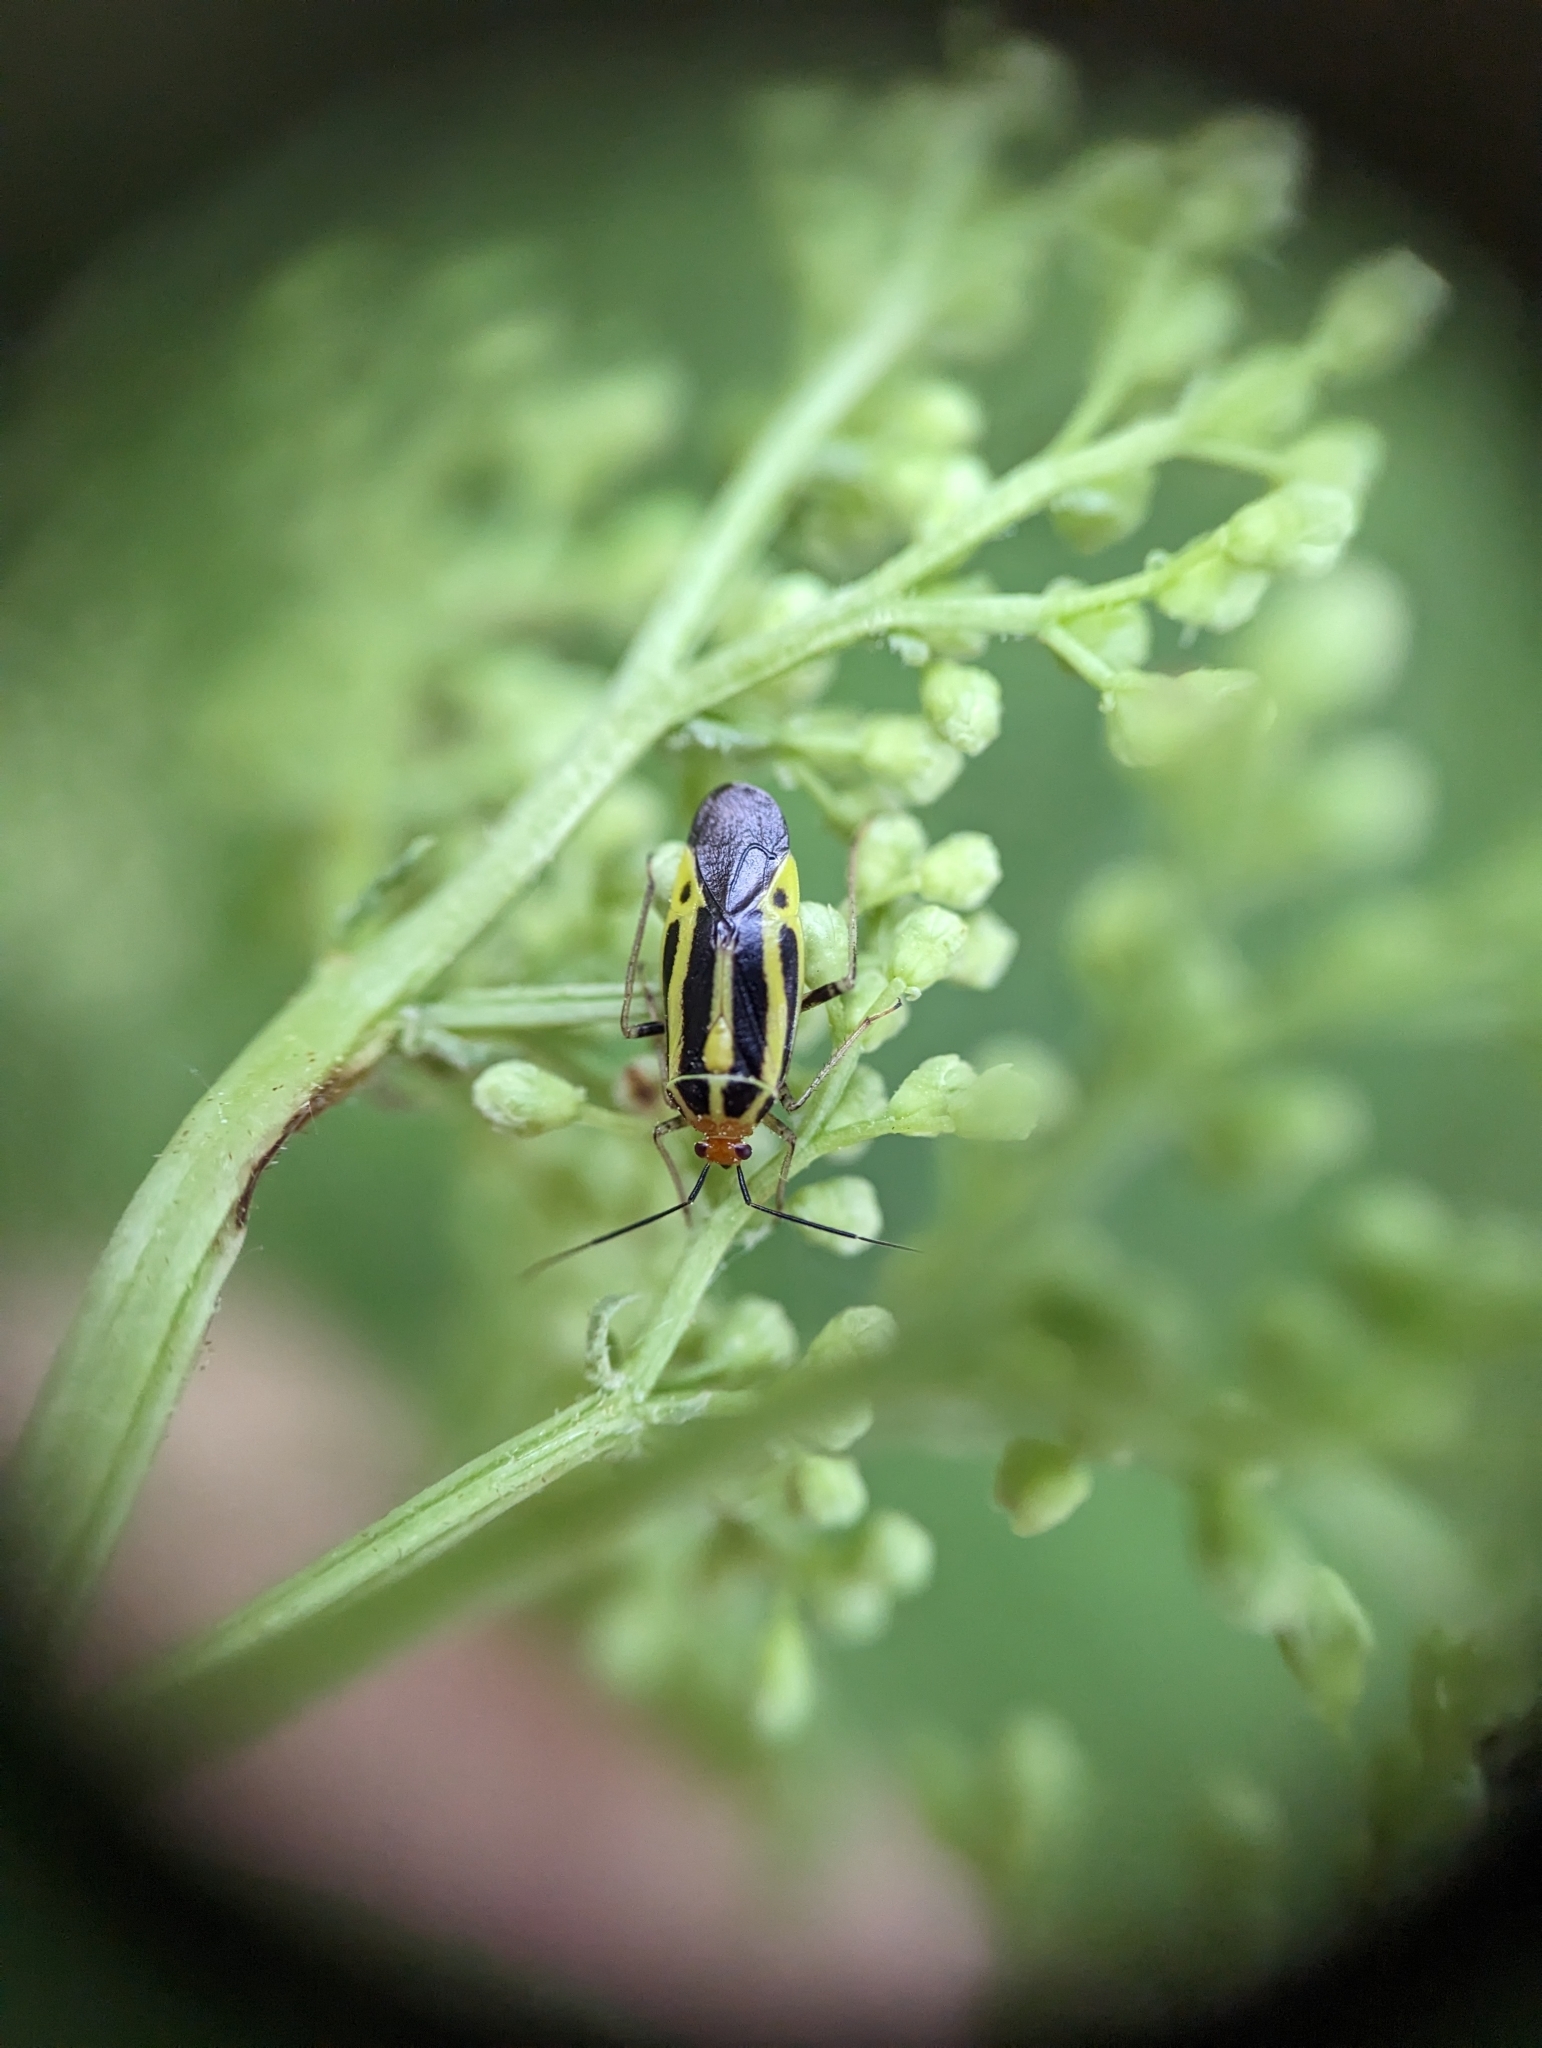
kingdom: Animalia
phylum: Arthropoda
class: Insecta
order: Hemiptera
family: Miridae
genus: Poecilocapsus
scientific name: Poecilocapsus lineatus
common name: Four-lined plant bug
